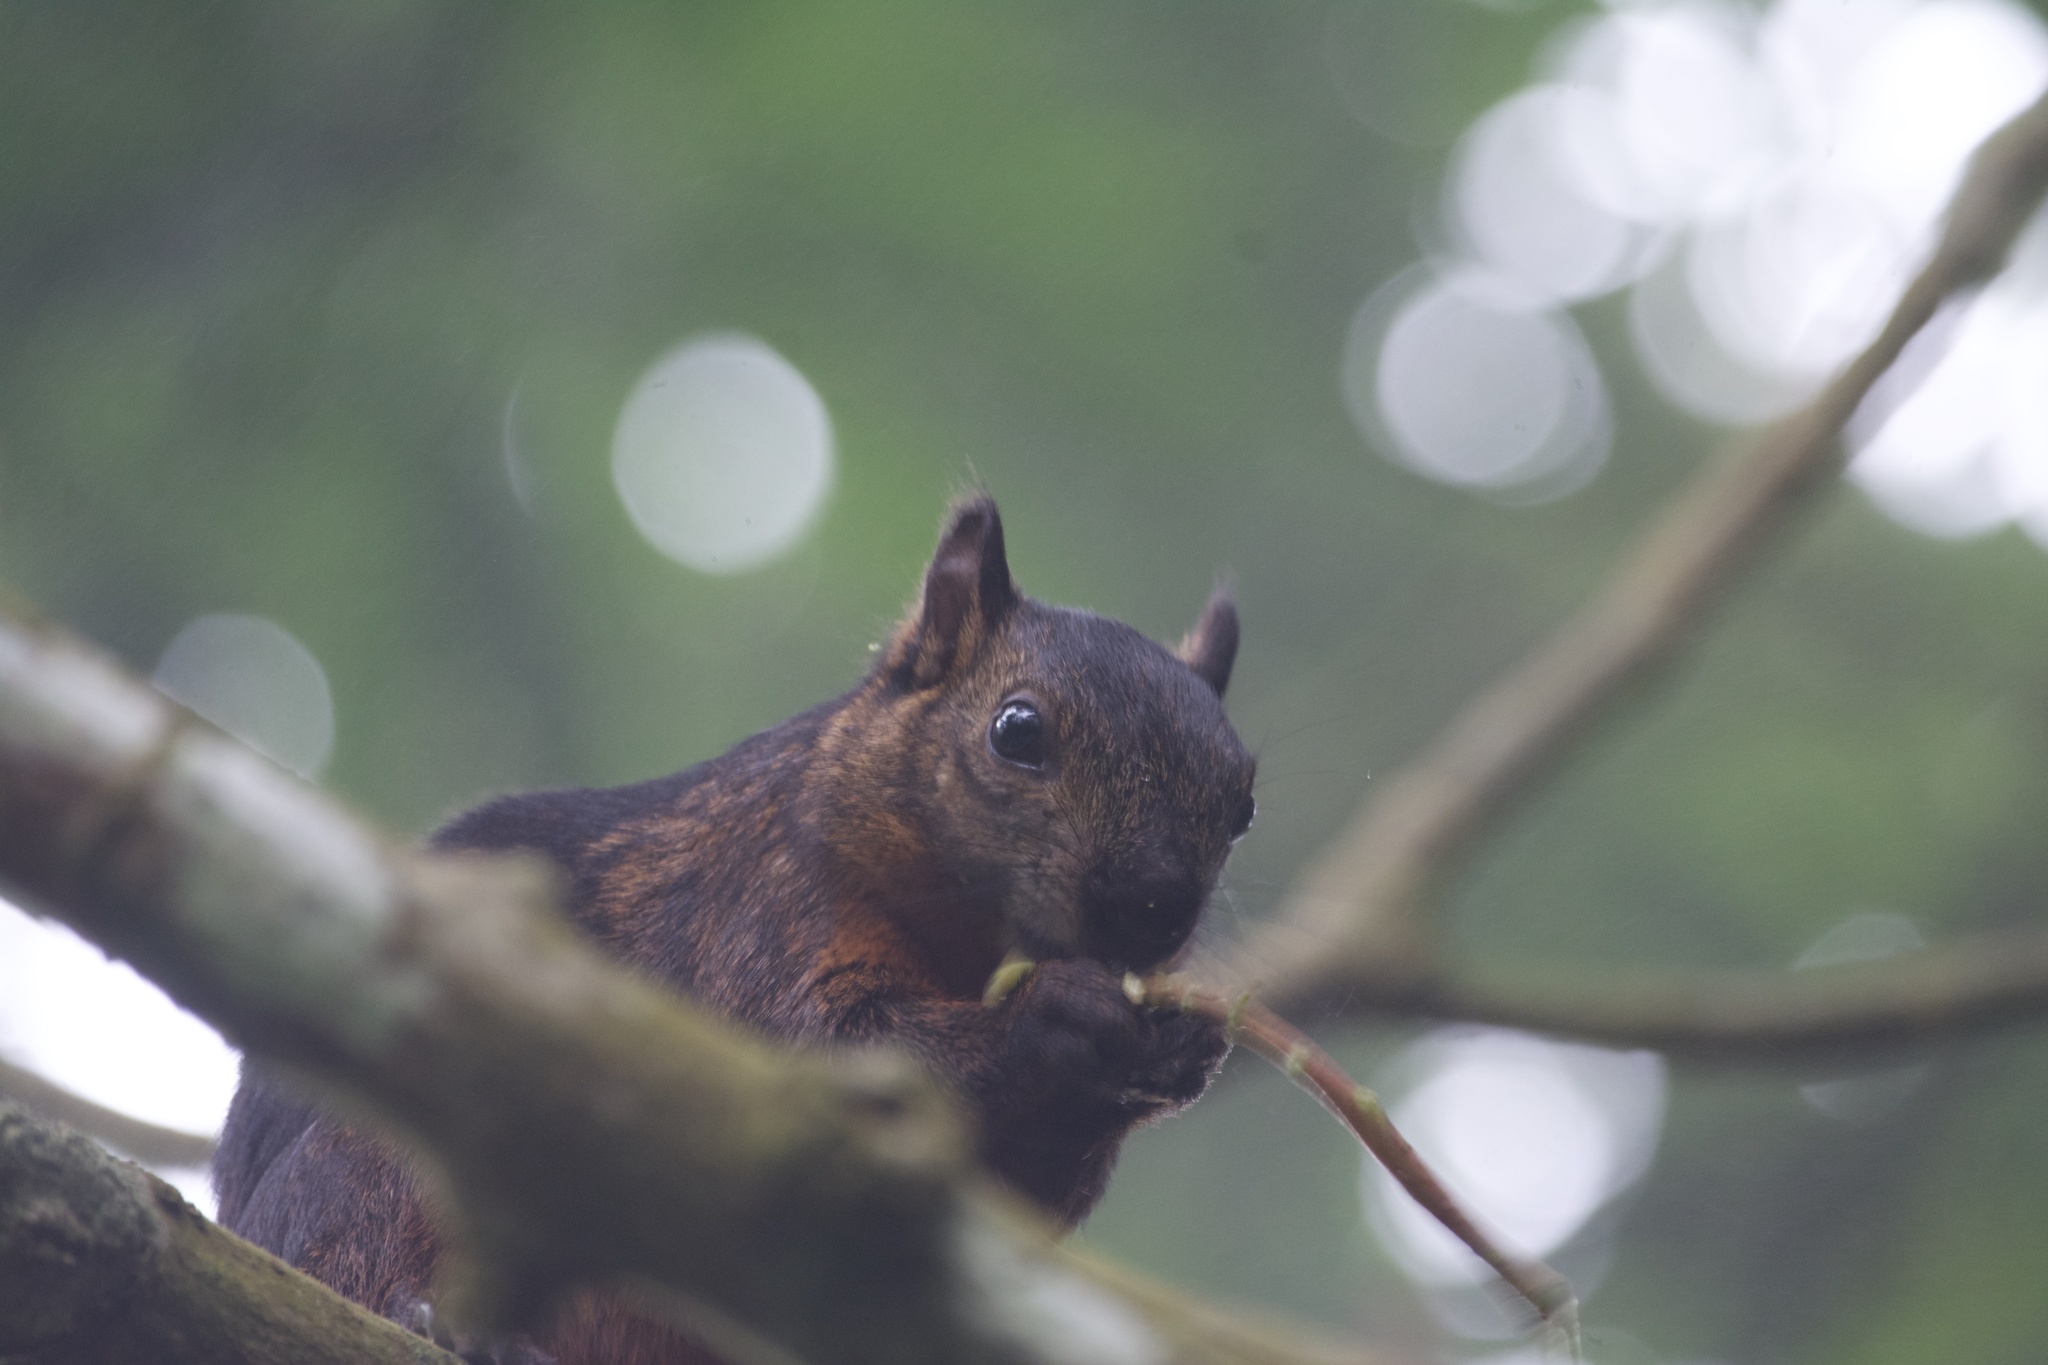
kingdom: Animalia
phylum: Chordata
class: Mammalia
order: Rodentia
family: Sciuridae
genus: Sciurus
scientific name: Sciurus variegatoides
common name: Variegated squirrel
